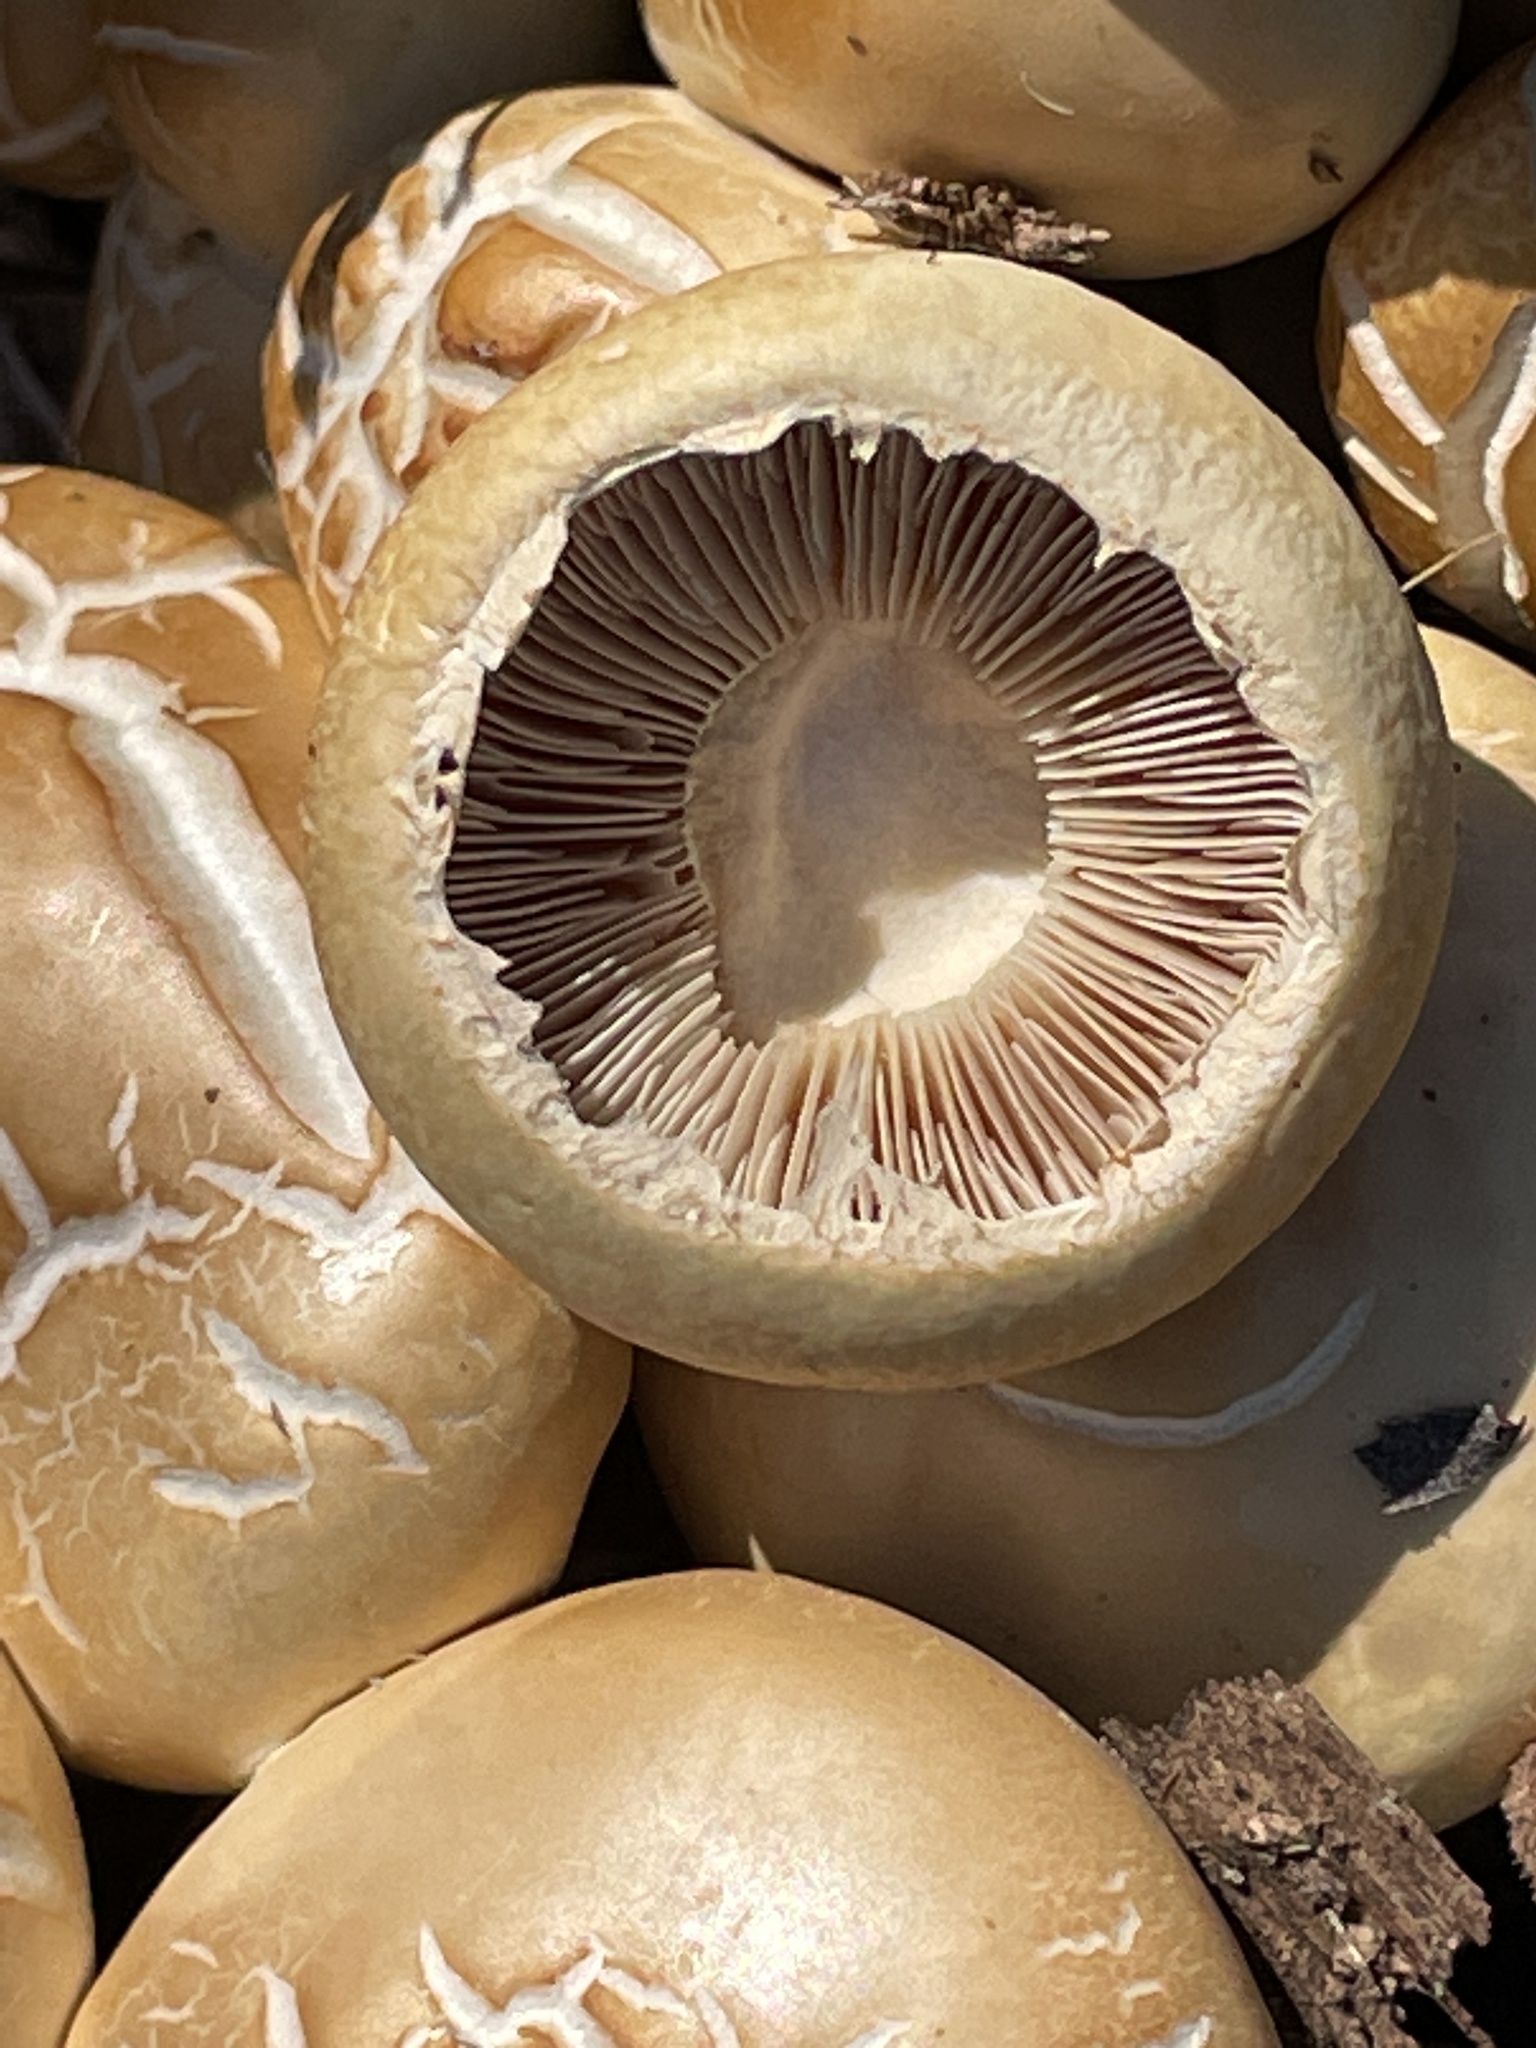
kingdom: Fungi
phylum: Basidiomycota
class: Agaricomycetes
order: Agaricales
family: Strophariaceae
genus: Agrocybe
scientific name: Agrocybe praecox
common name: Spring fieldcap
